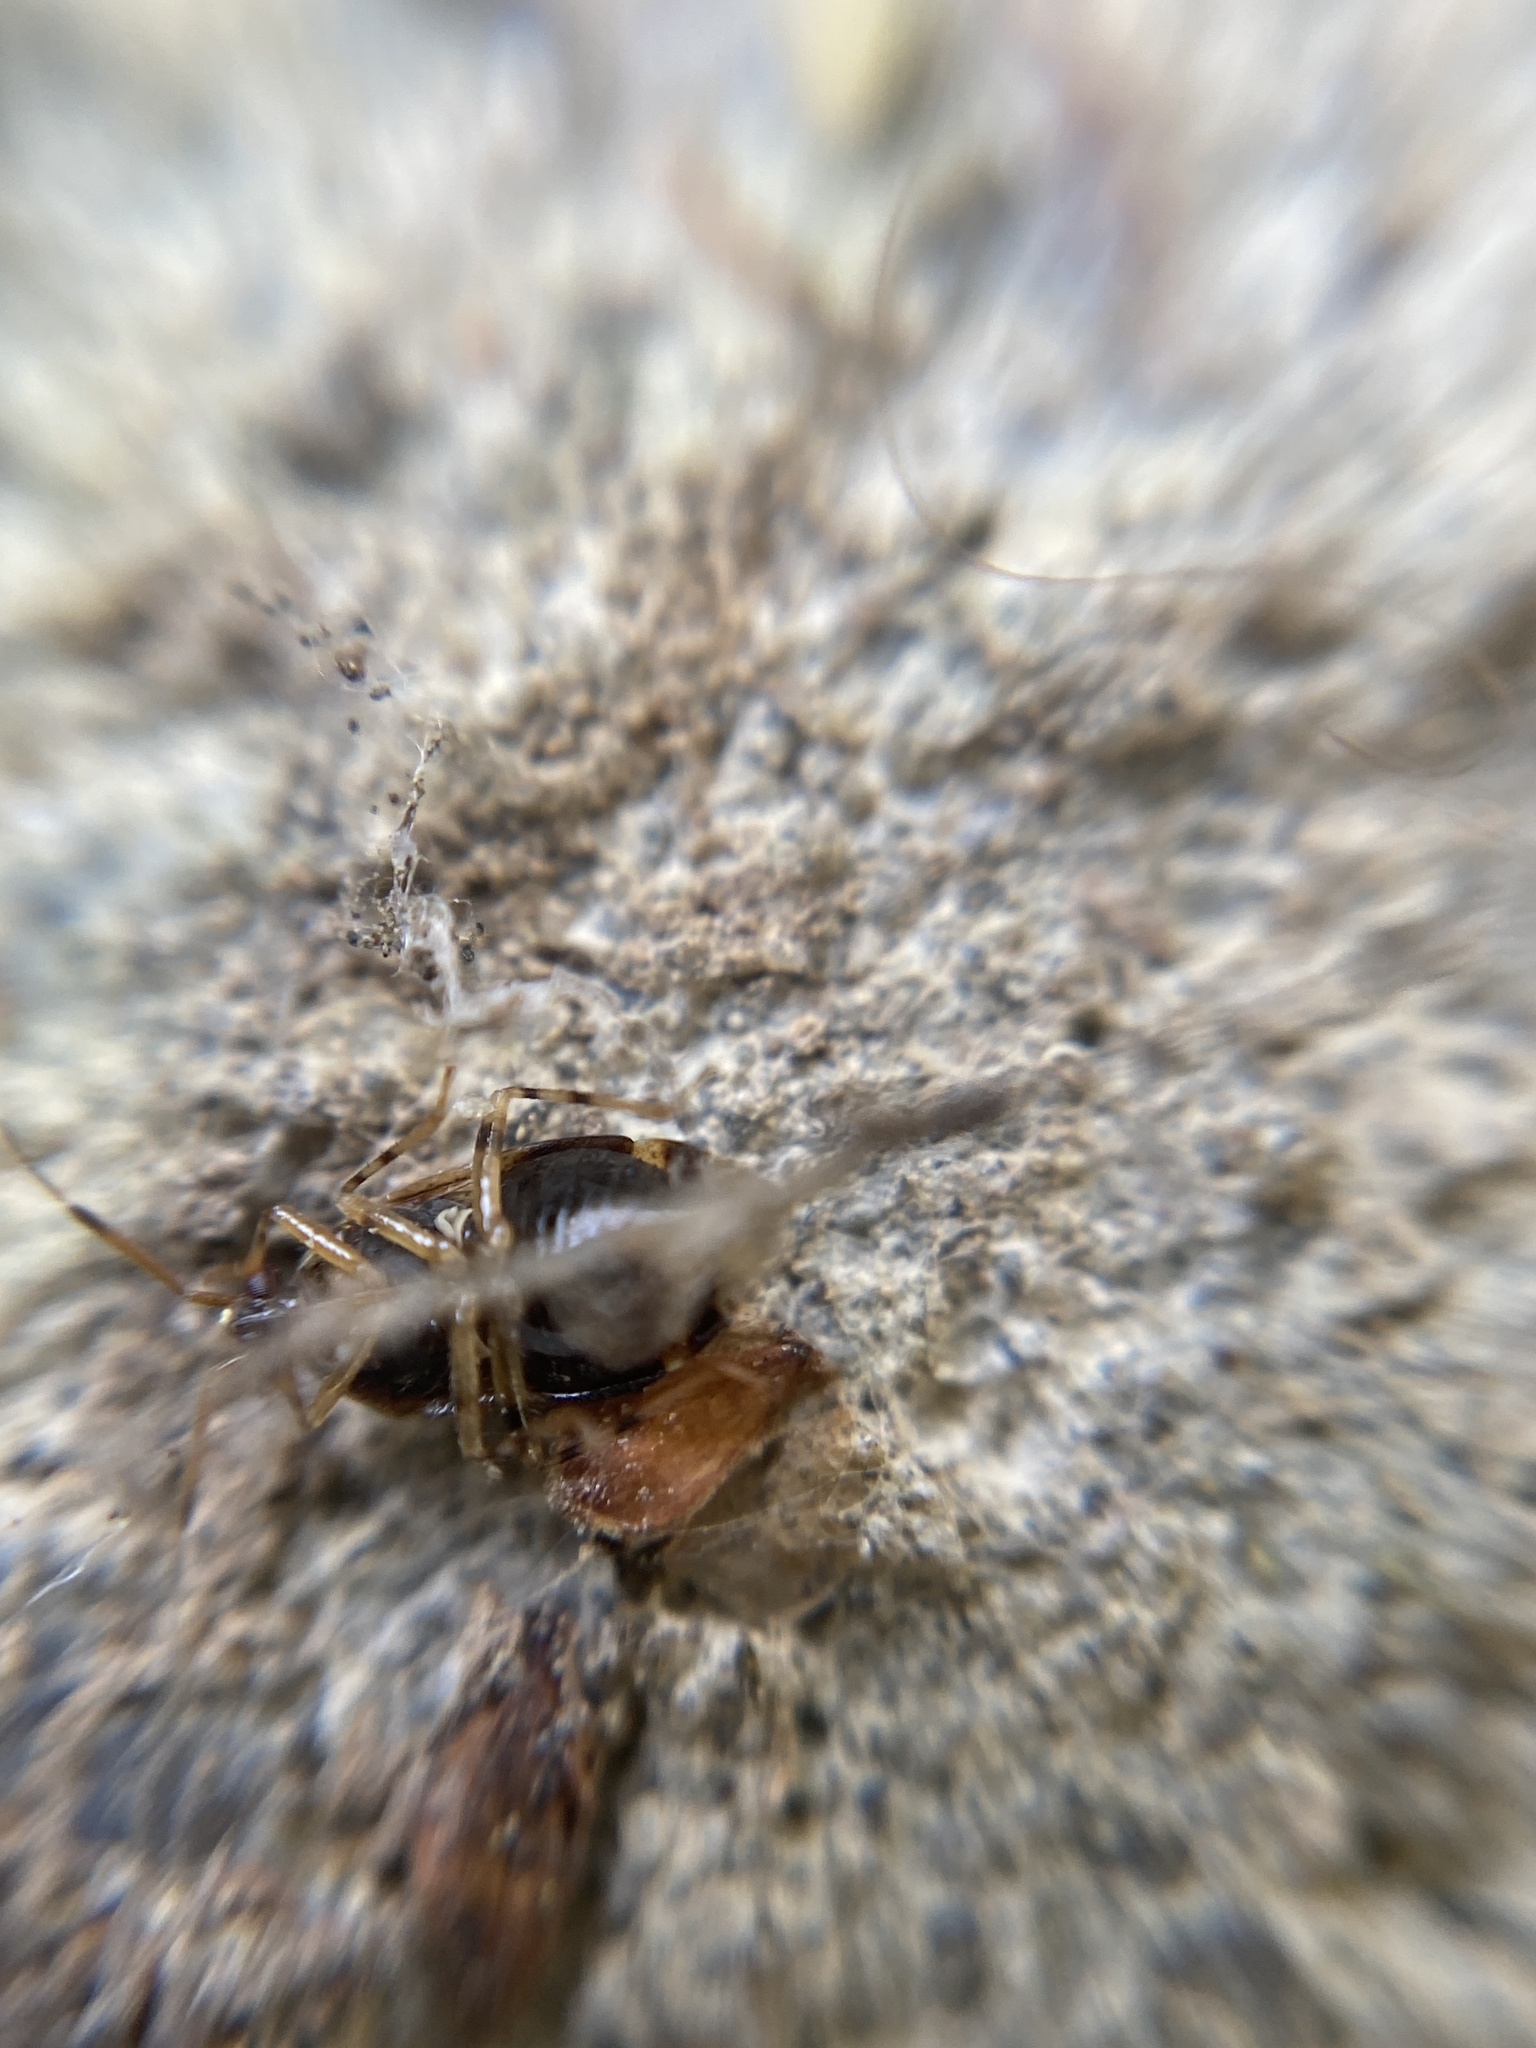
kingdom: Animalia
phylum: Arthropoda
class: Insecta
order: Hemiptera
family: Miridae
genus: Deraeocoris
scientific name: Deraeocoris lutescens
